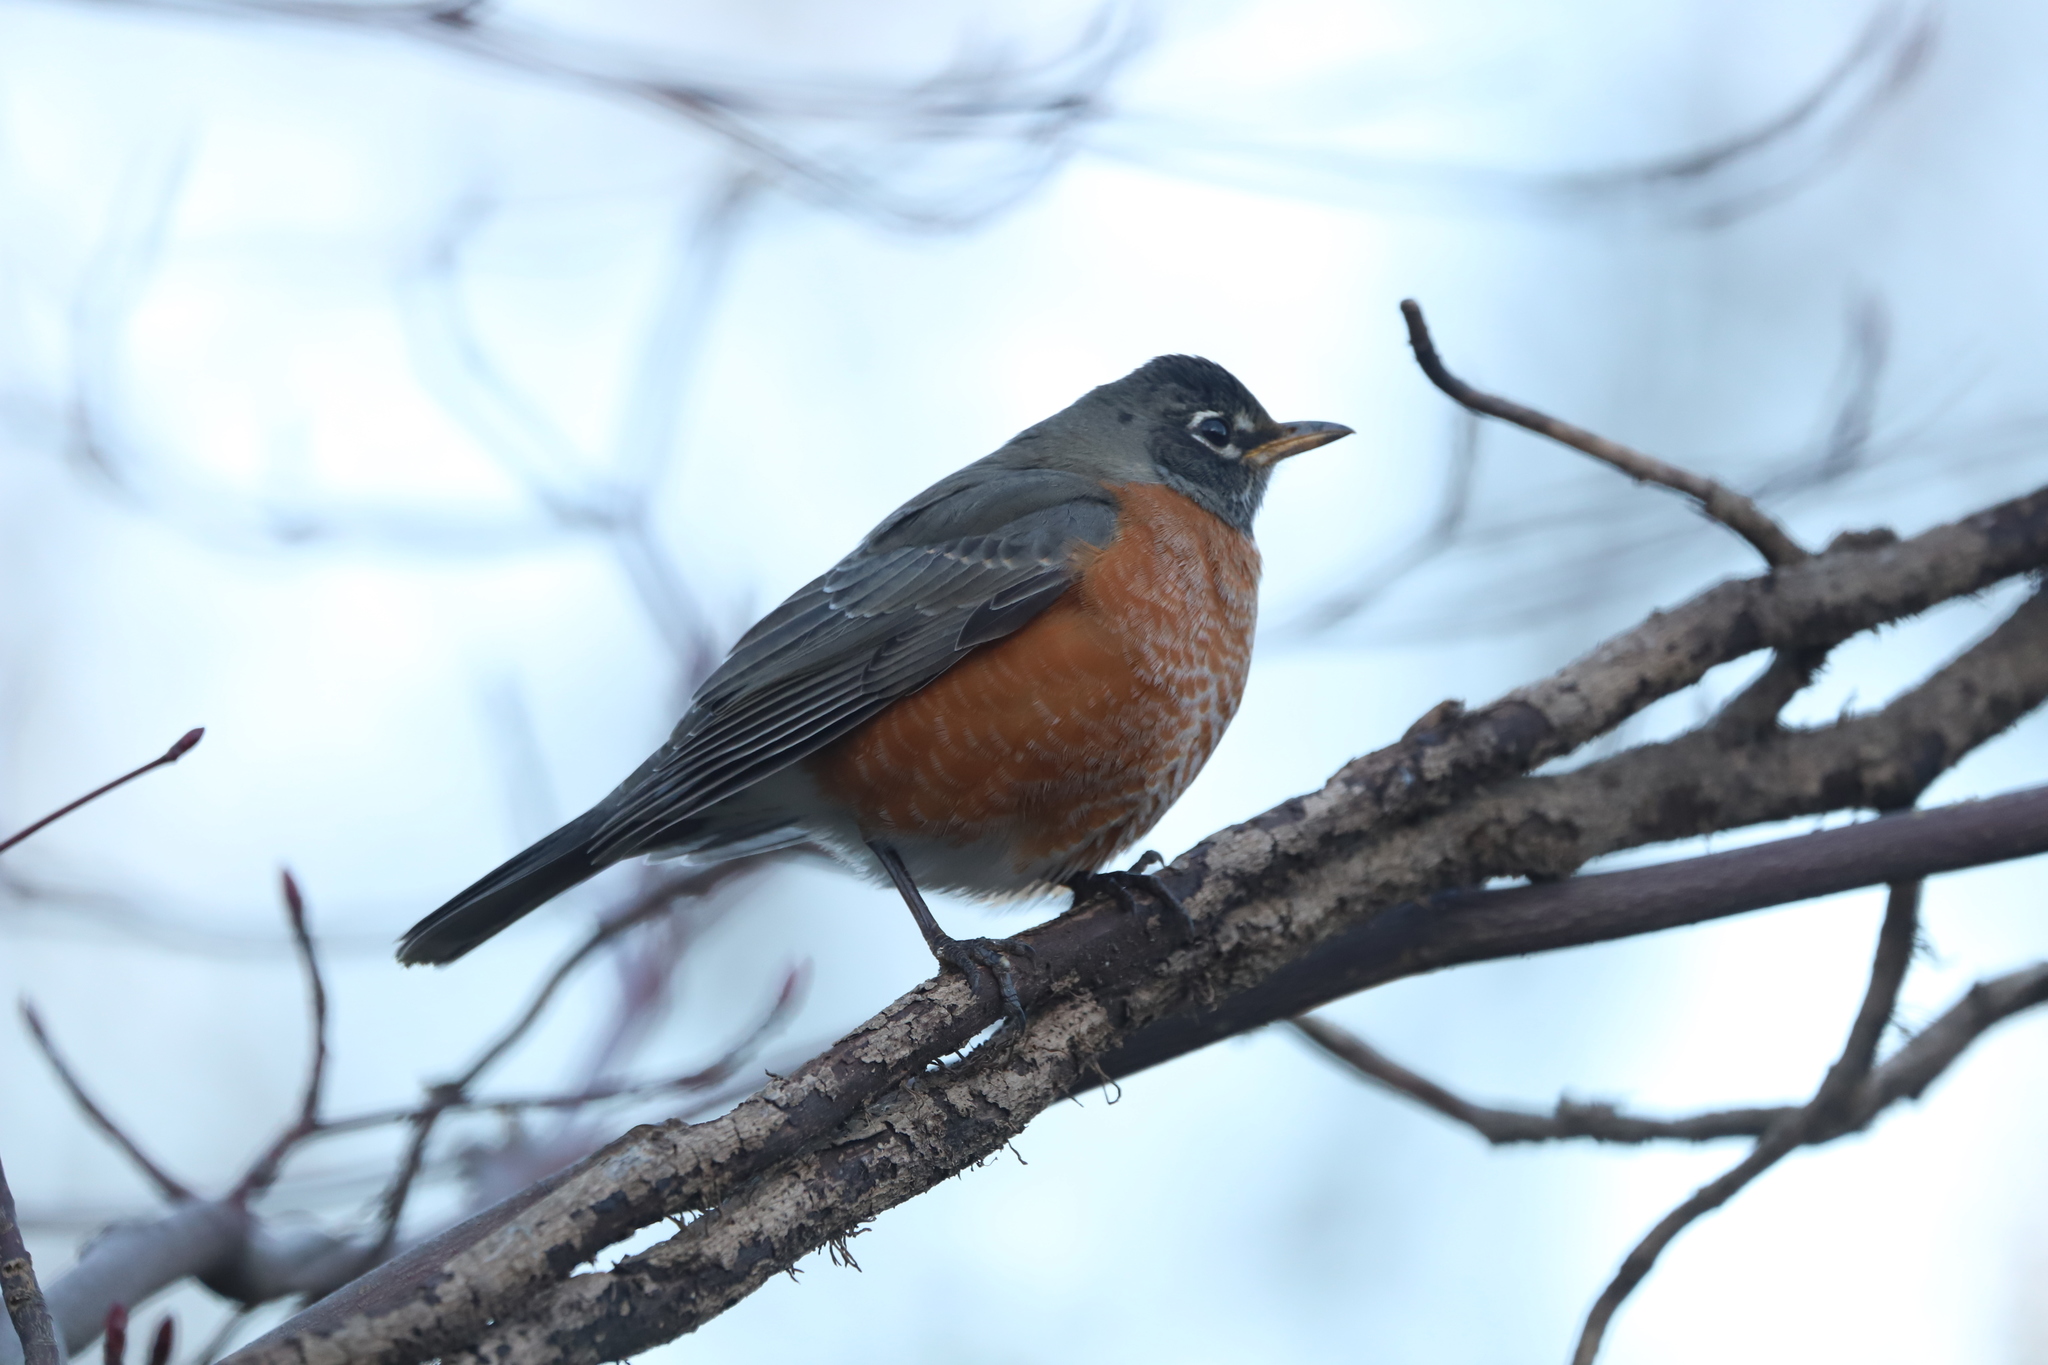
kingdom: Animalia
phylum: Chordata
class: Aves
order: Passeriformes
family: Turdidae
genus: Turdus
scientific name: Turdus migratorius
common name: American robin
